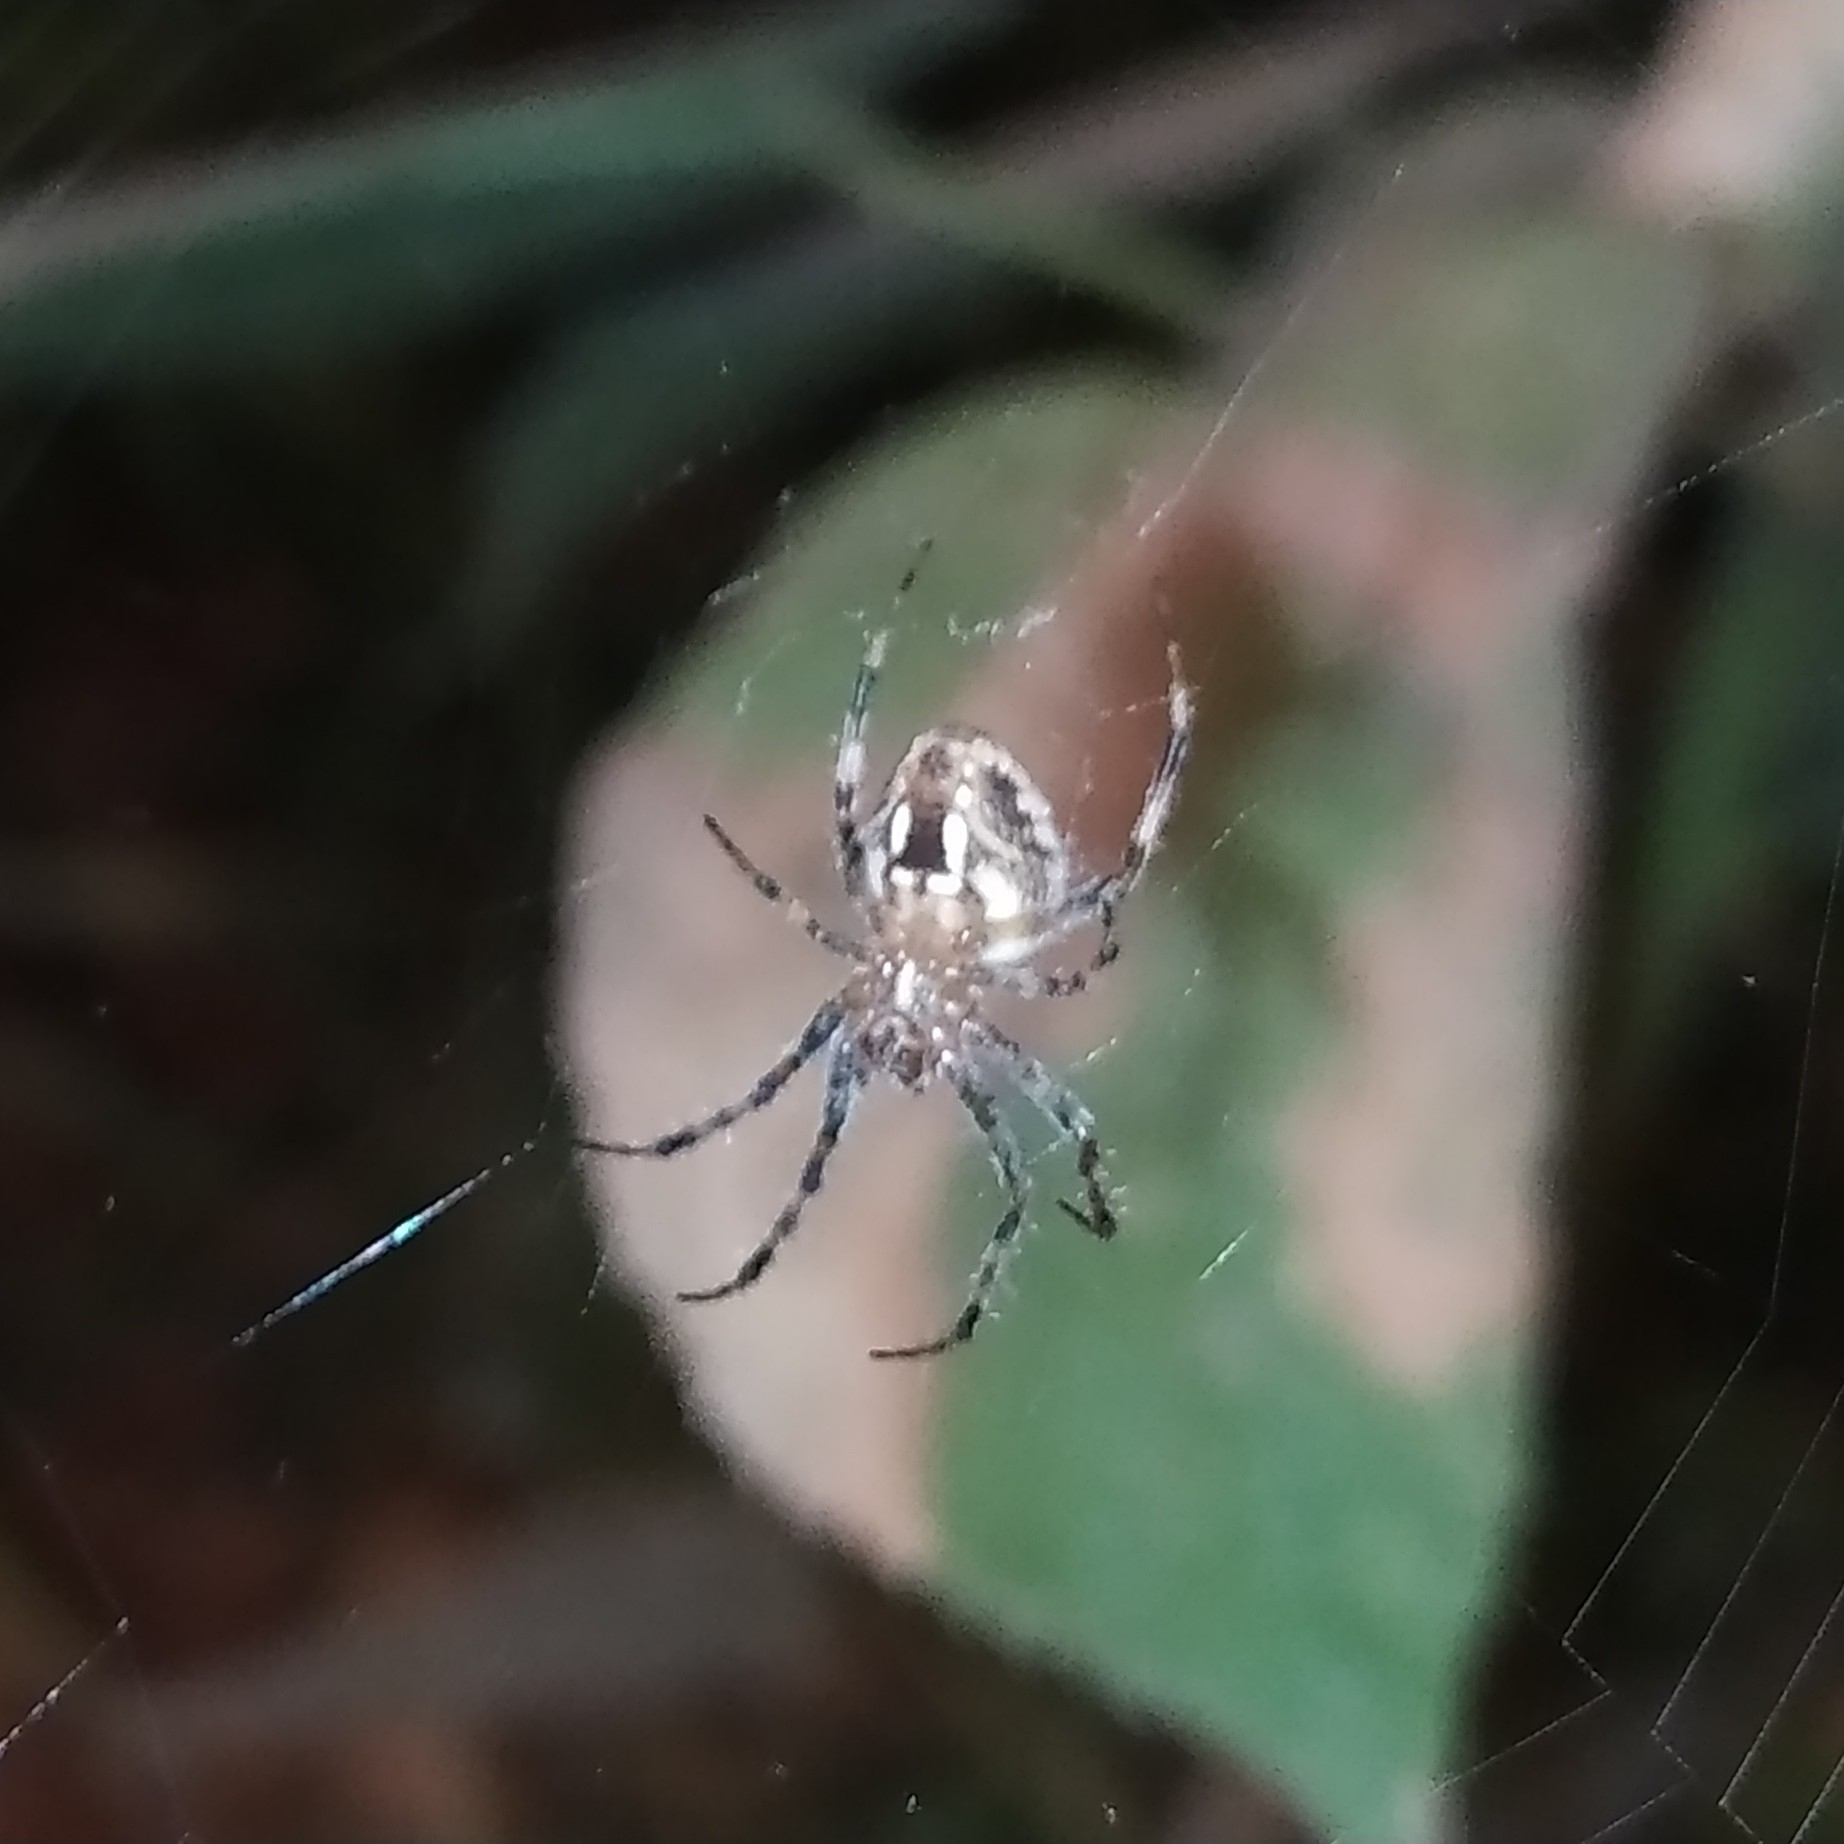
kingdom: Animalia
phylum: Arthropoda
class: Arachnida
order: Araneae
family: Araneidae
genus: Neoscona
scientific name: Neoscona spasskyi
